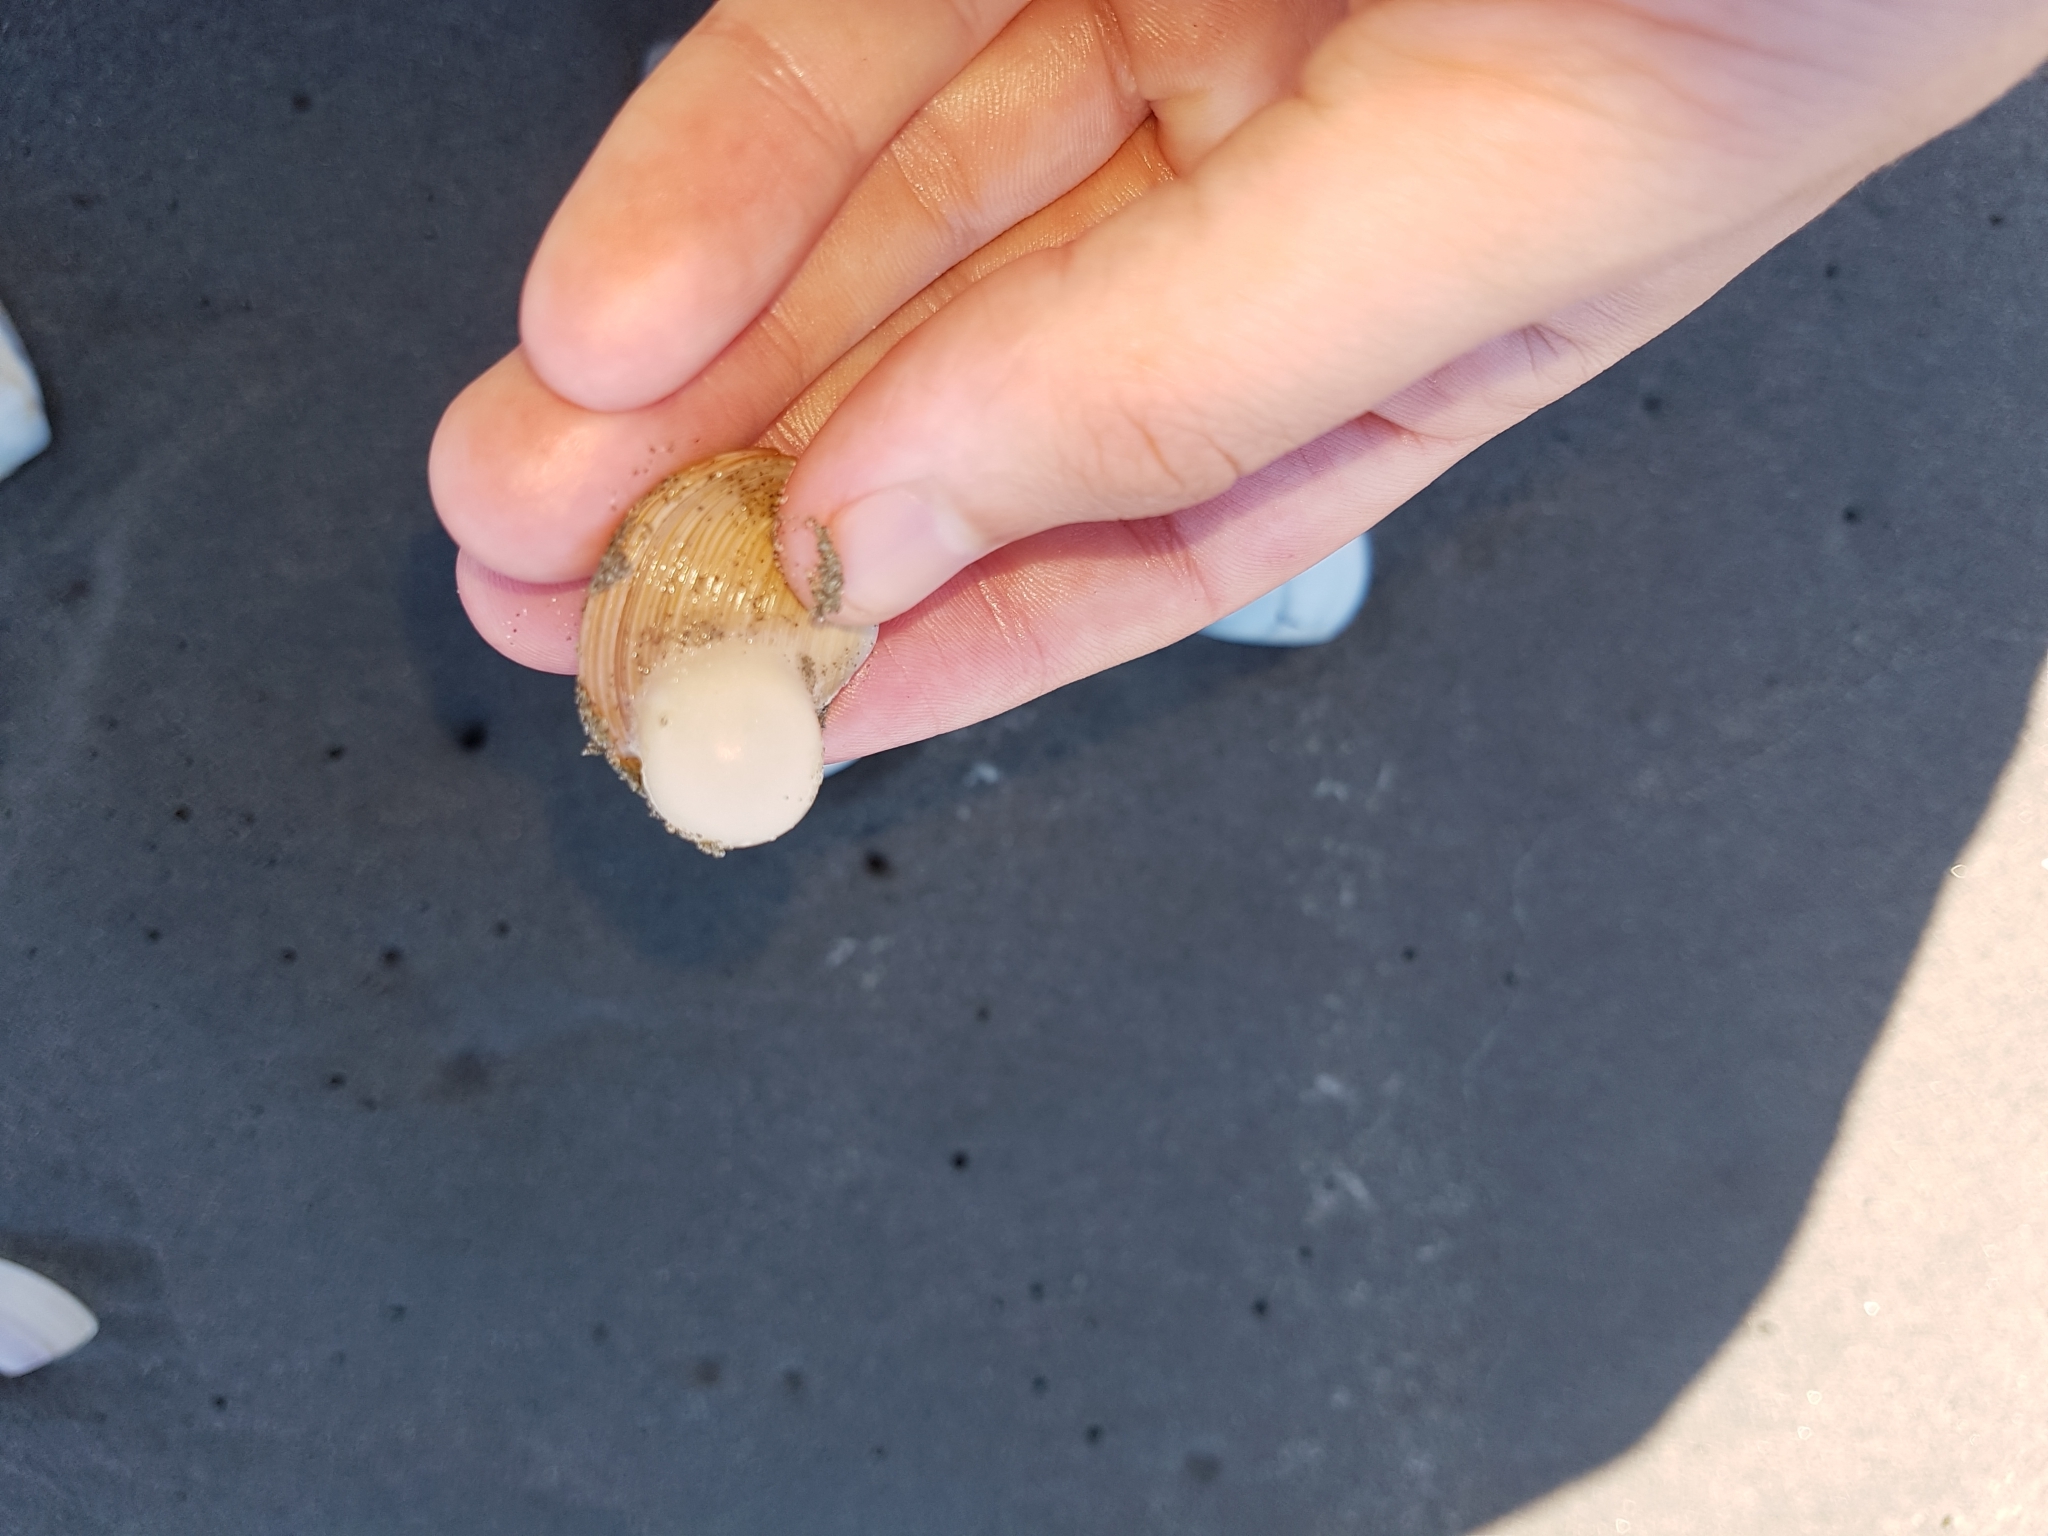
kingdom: Animalia
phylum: Mollusca
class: Gastropoda
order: Neogastropoda
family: Volutidae
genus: Alcithoe
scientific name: Alcithoe arabica
